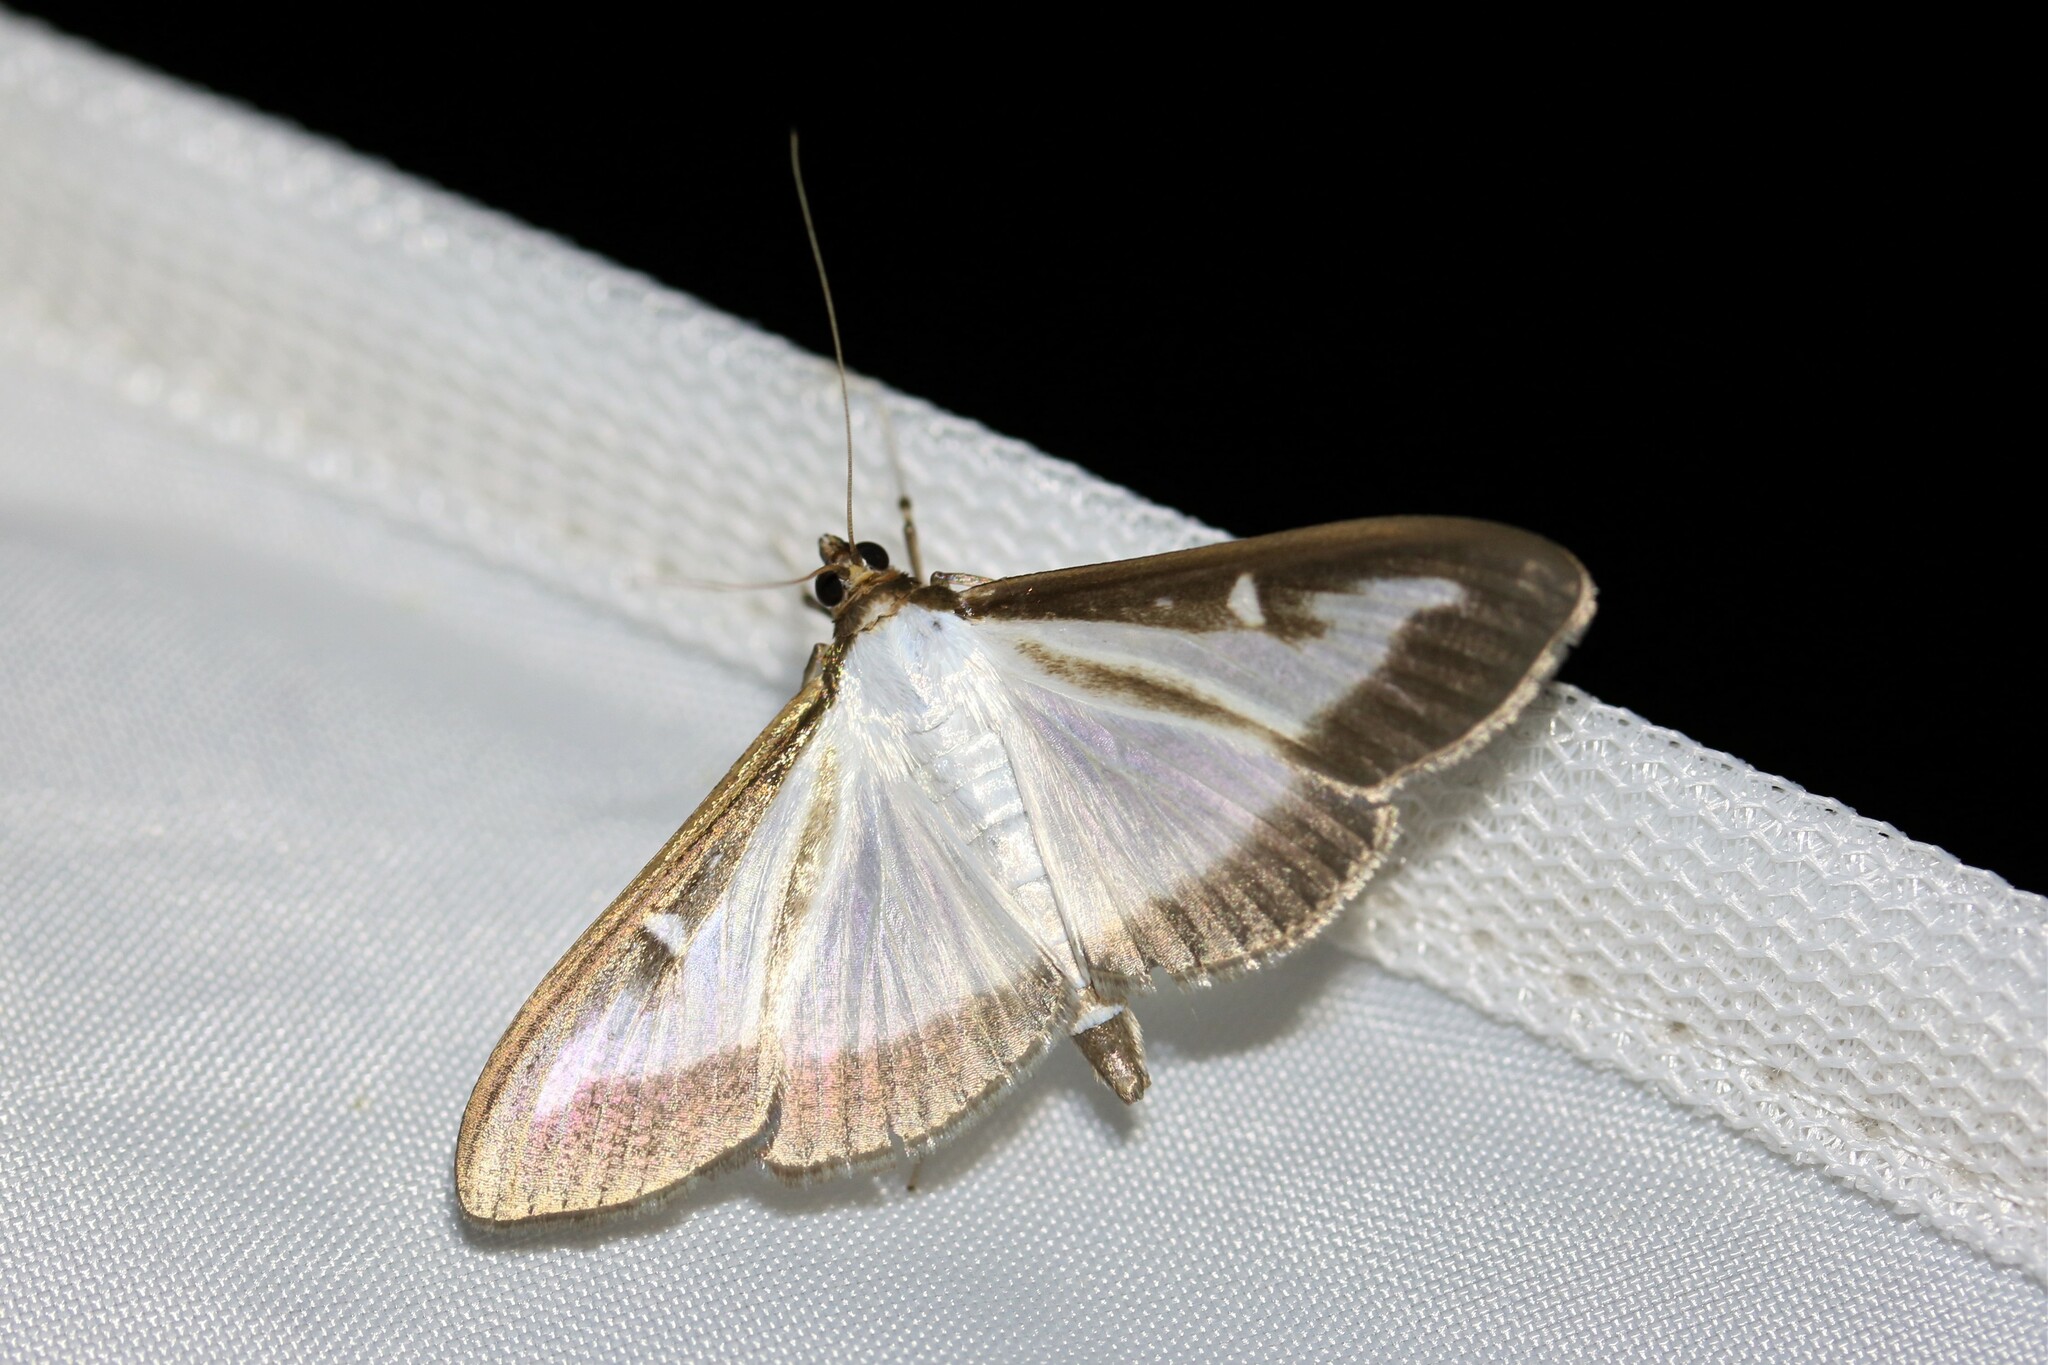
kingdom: Animalia
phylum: Arthropoda
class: Insecta
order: Lepidoptera
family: Crambidae
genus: Cydalima
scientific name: Cydalima perspectalis
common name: Box tree moth
